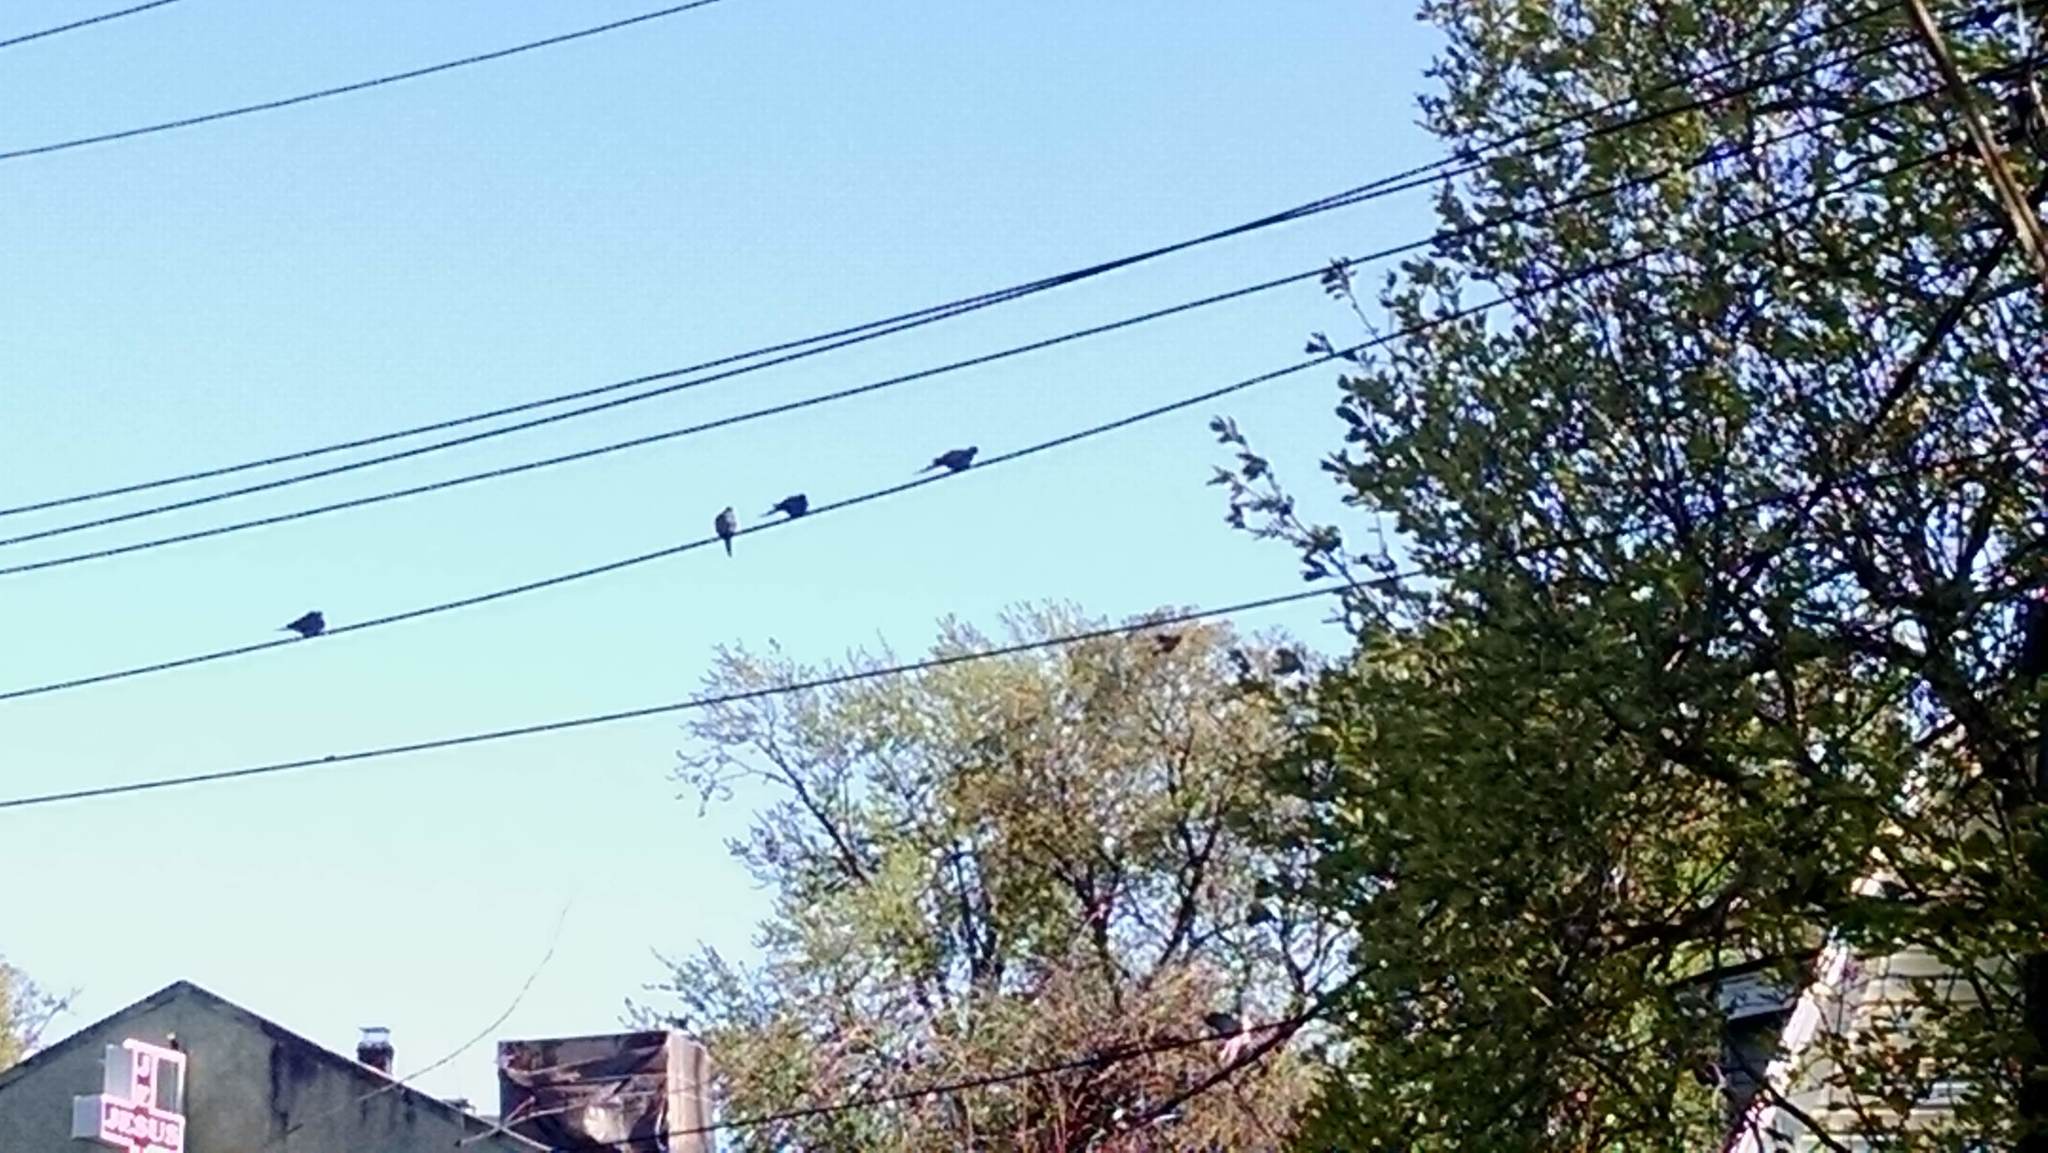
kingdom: Animalia
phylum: Chordata
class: Aves
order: Columbiformes
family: Columbidae
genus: Zenaida
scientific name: Zenaida macroura
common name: Mourning dove
